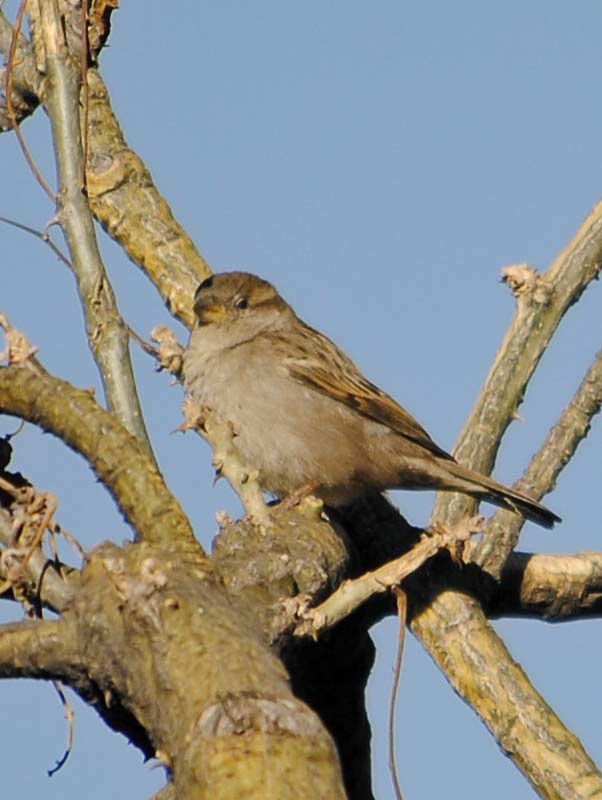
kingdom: Animalia
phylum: Chordata
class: Aves
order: Passeriformes
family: Passeridae
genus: Passer
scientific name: Passer domesticus
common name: House sparrow
